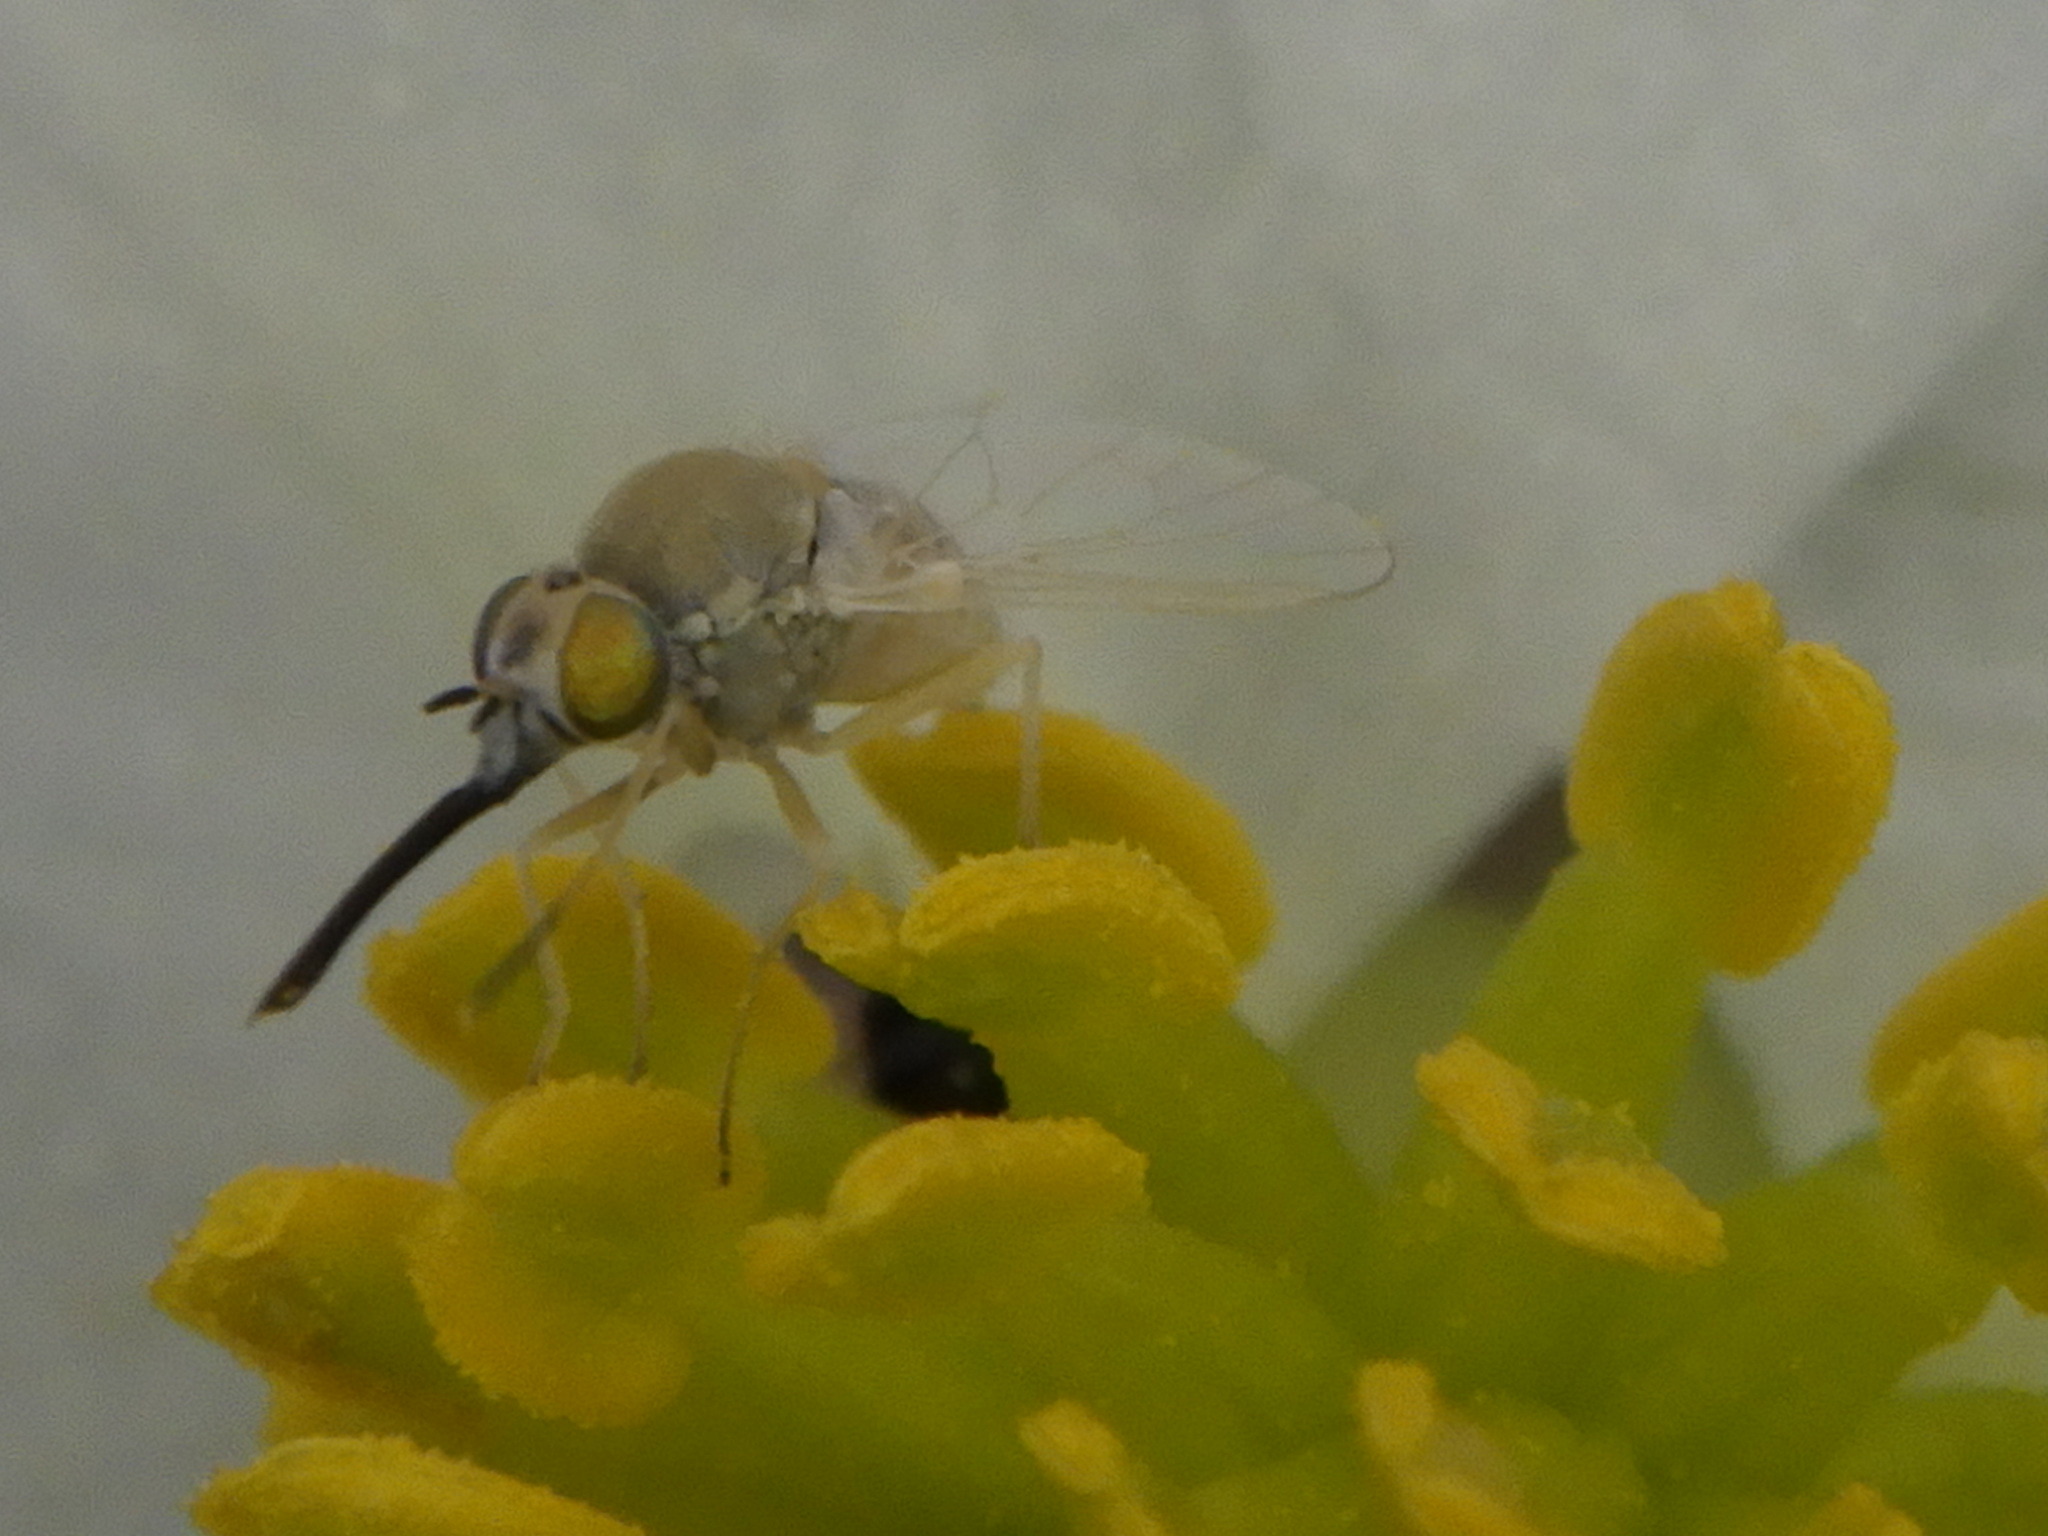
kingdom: Animalia
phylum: Arthropoda
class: Insecta
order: Diptera
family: Bombyliidae
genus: Tmemophlebia
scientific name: Tmemophlebia
